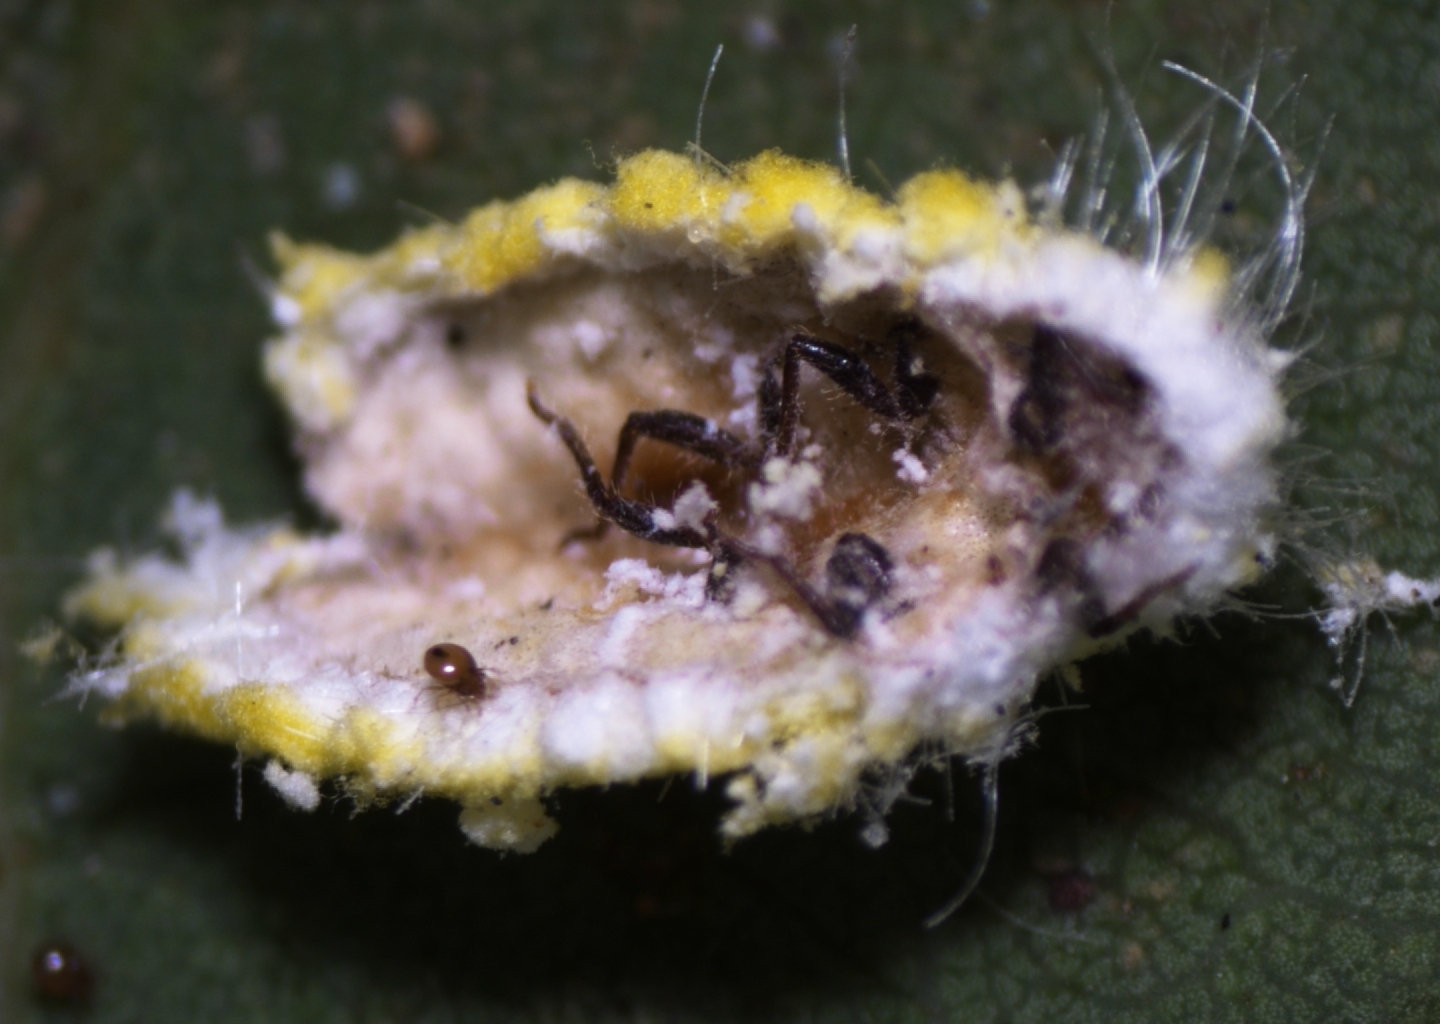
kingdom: Animalia
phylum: Arthropoda
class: Insecta
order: Hemiptera
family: Margarodidae
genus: Icerya
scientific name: Icerya seychellarum
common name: Iceplant scale
